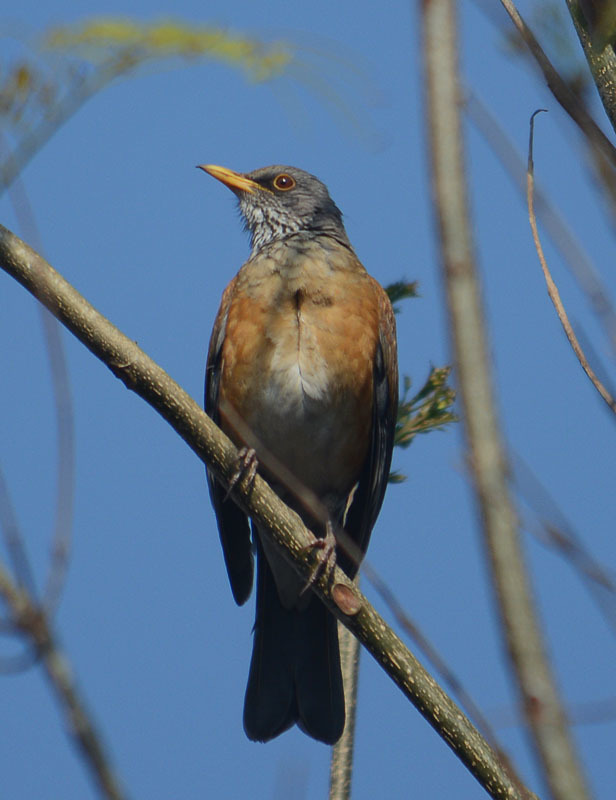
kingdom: Animalia
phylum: Chordata
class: Aves
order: Passeriformes
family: Turdidae
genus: Turdus
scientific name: Turdus rufopalliatus
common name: Rufous-backed robin
